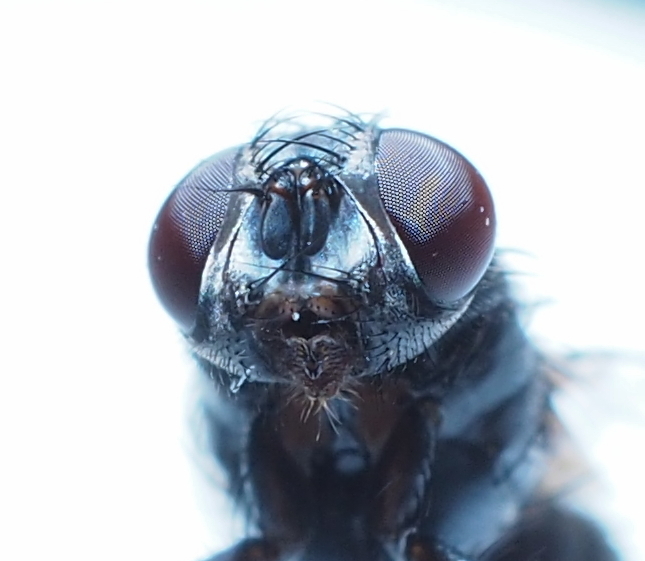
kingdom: Animalia
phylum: Arthropoda
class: Insecta
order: Diptera
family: Muscidae
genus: Muscina
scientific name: Muscina stabulans
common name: False stable fly
